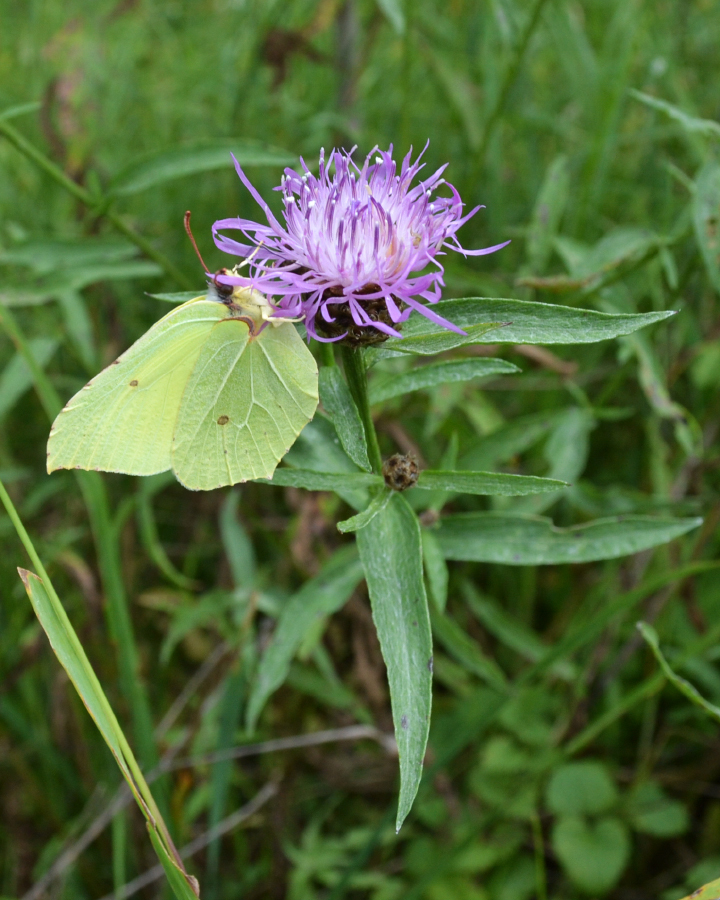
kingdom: Animalia
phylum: Arthropoda
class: Insecta
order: Lepidoptera
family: Pieridae
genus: Gonepteryx
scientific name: Gonepteryx rhamni
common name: Brimstone
